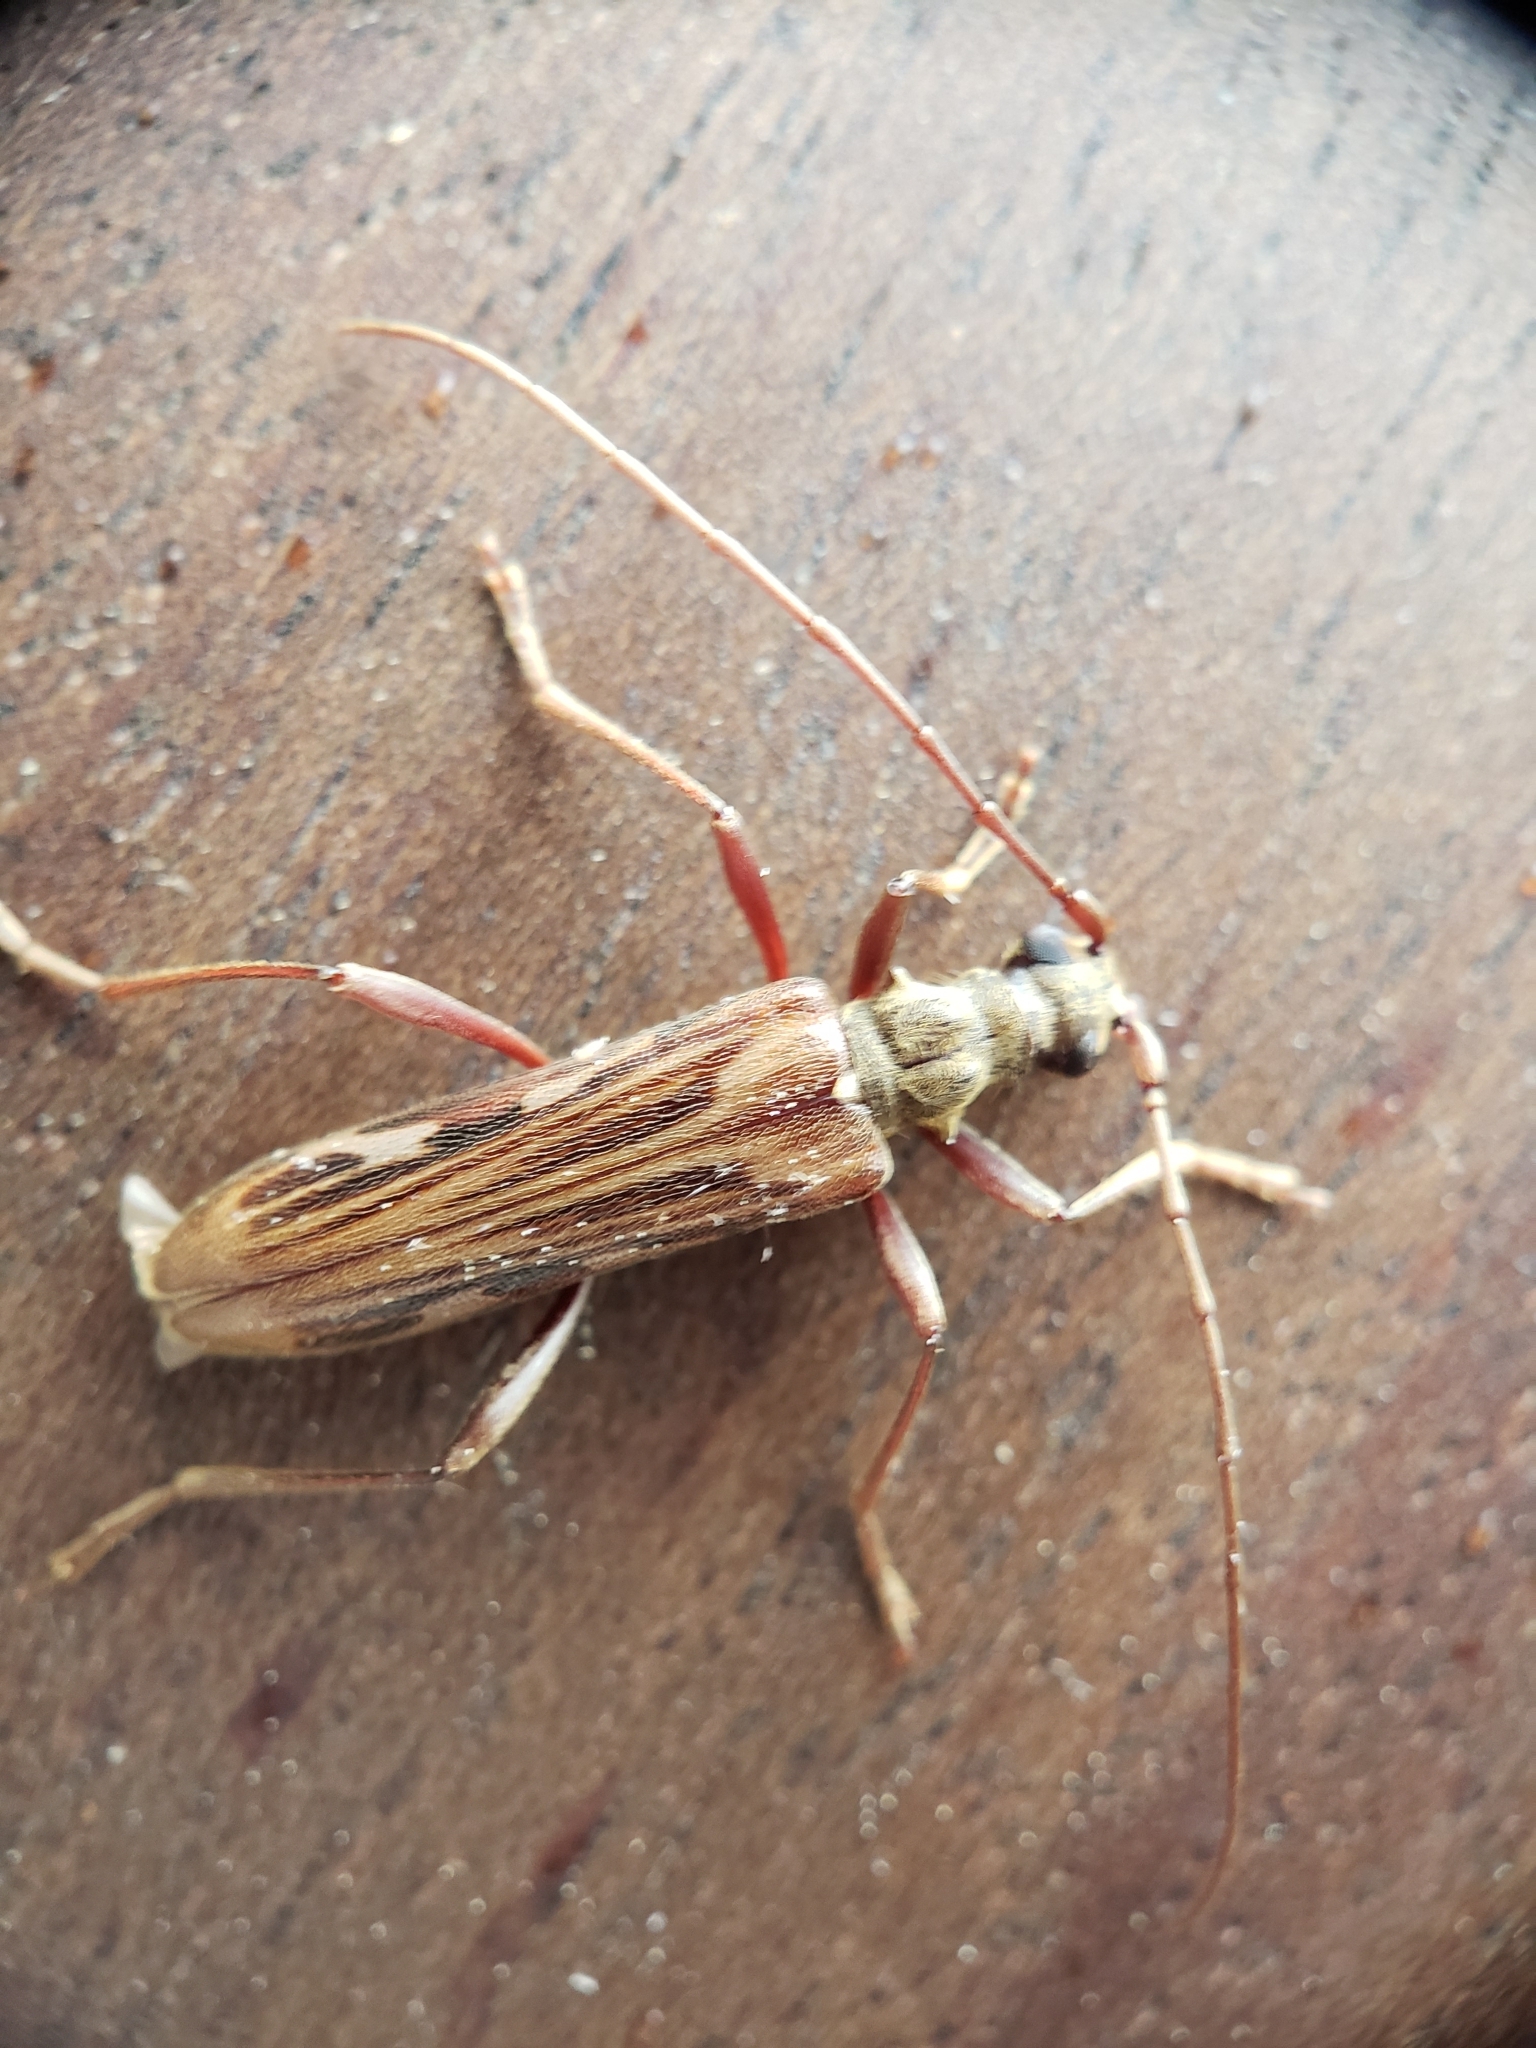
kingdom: Animalia
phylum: Arthropoda
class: Insecta
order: Coleoptera
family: Cerambycidae
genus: Leptorhabdium
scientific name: Leptorhabdium pictum
